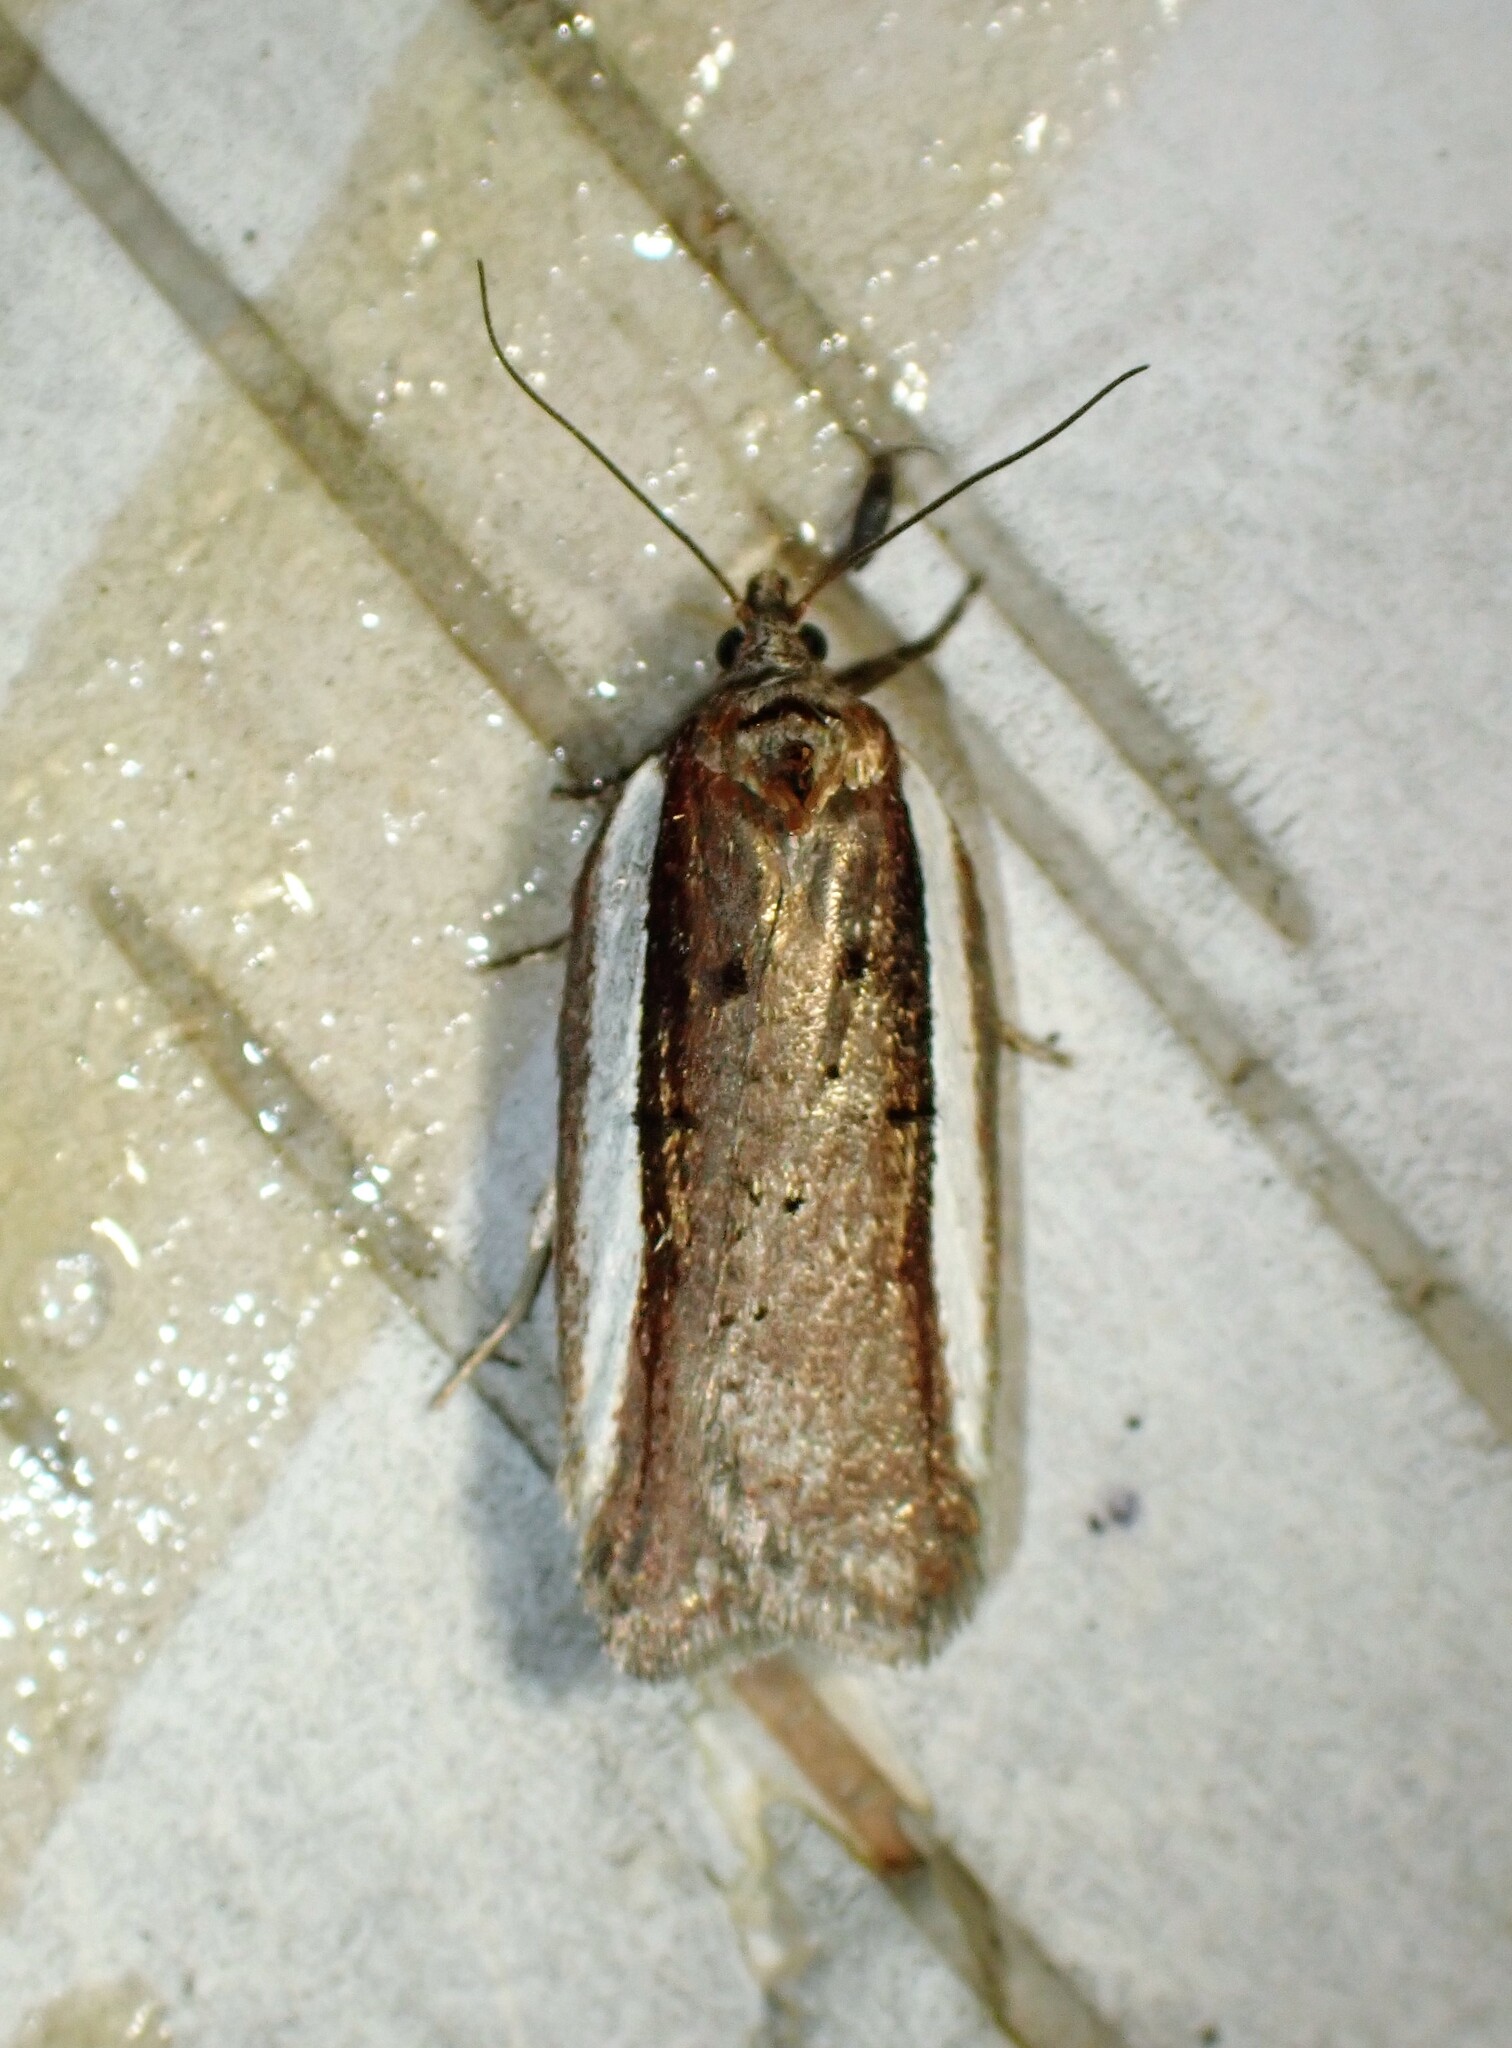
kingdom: Animalia
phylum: Arthropoda
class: Insecta
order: Lepidoptera
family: Tortricidae
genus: Acleris
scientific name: Acleris celiana
